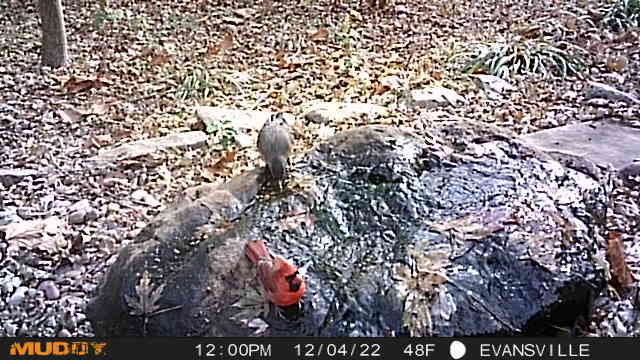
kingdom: Animalia
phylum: Chordata
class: Aves
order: Passeriformes
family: Cardinalidae
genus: Cardinalis
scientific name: Cardinalis cardinalis
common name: Northern cardinal
